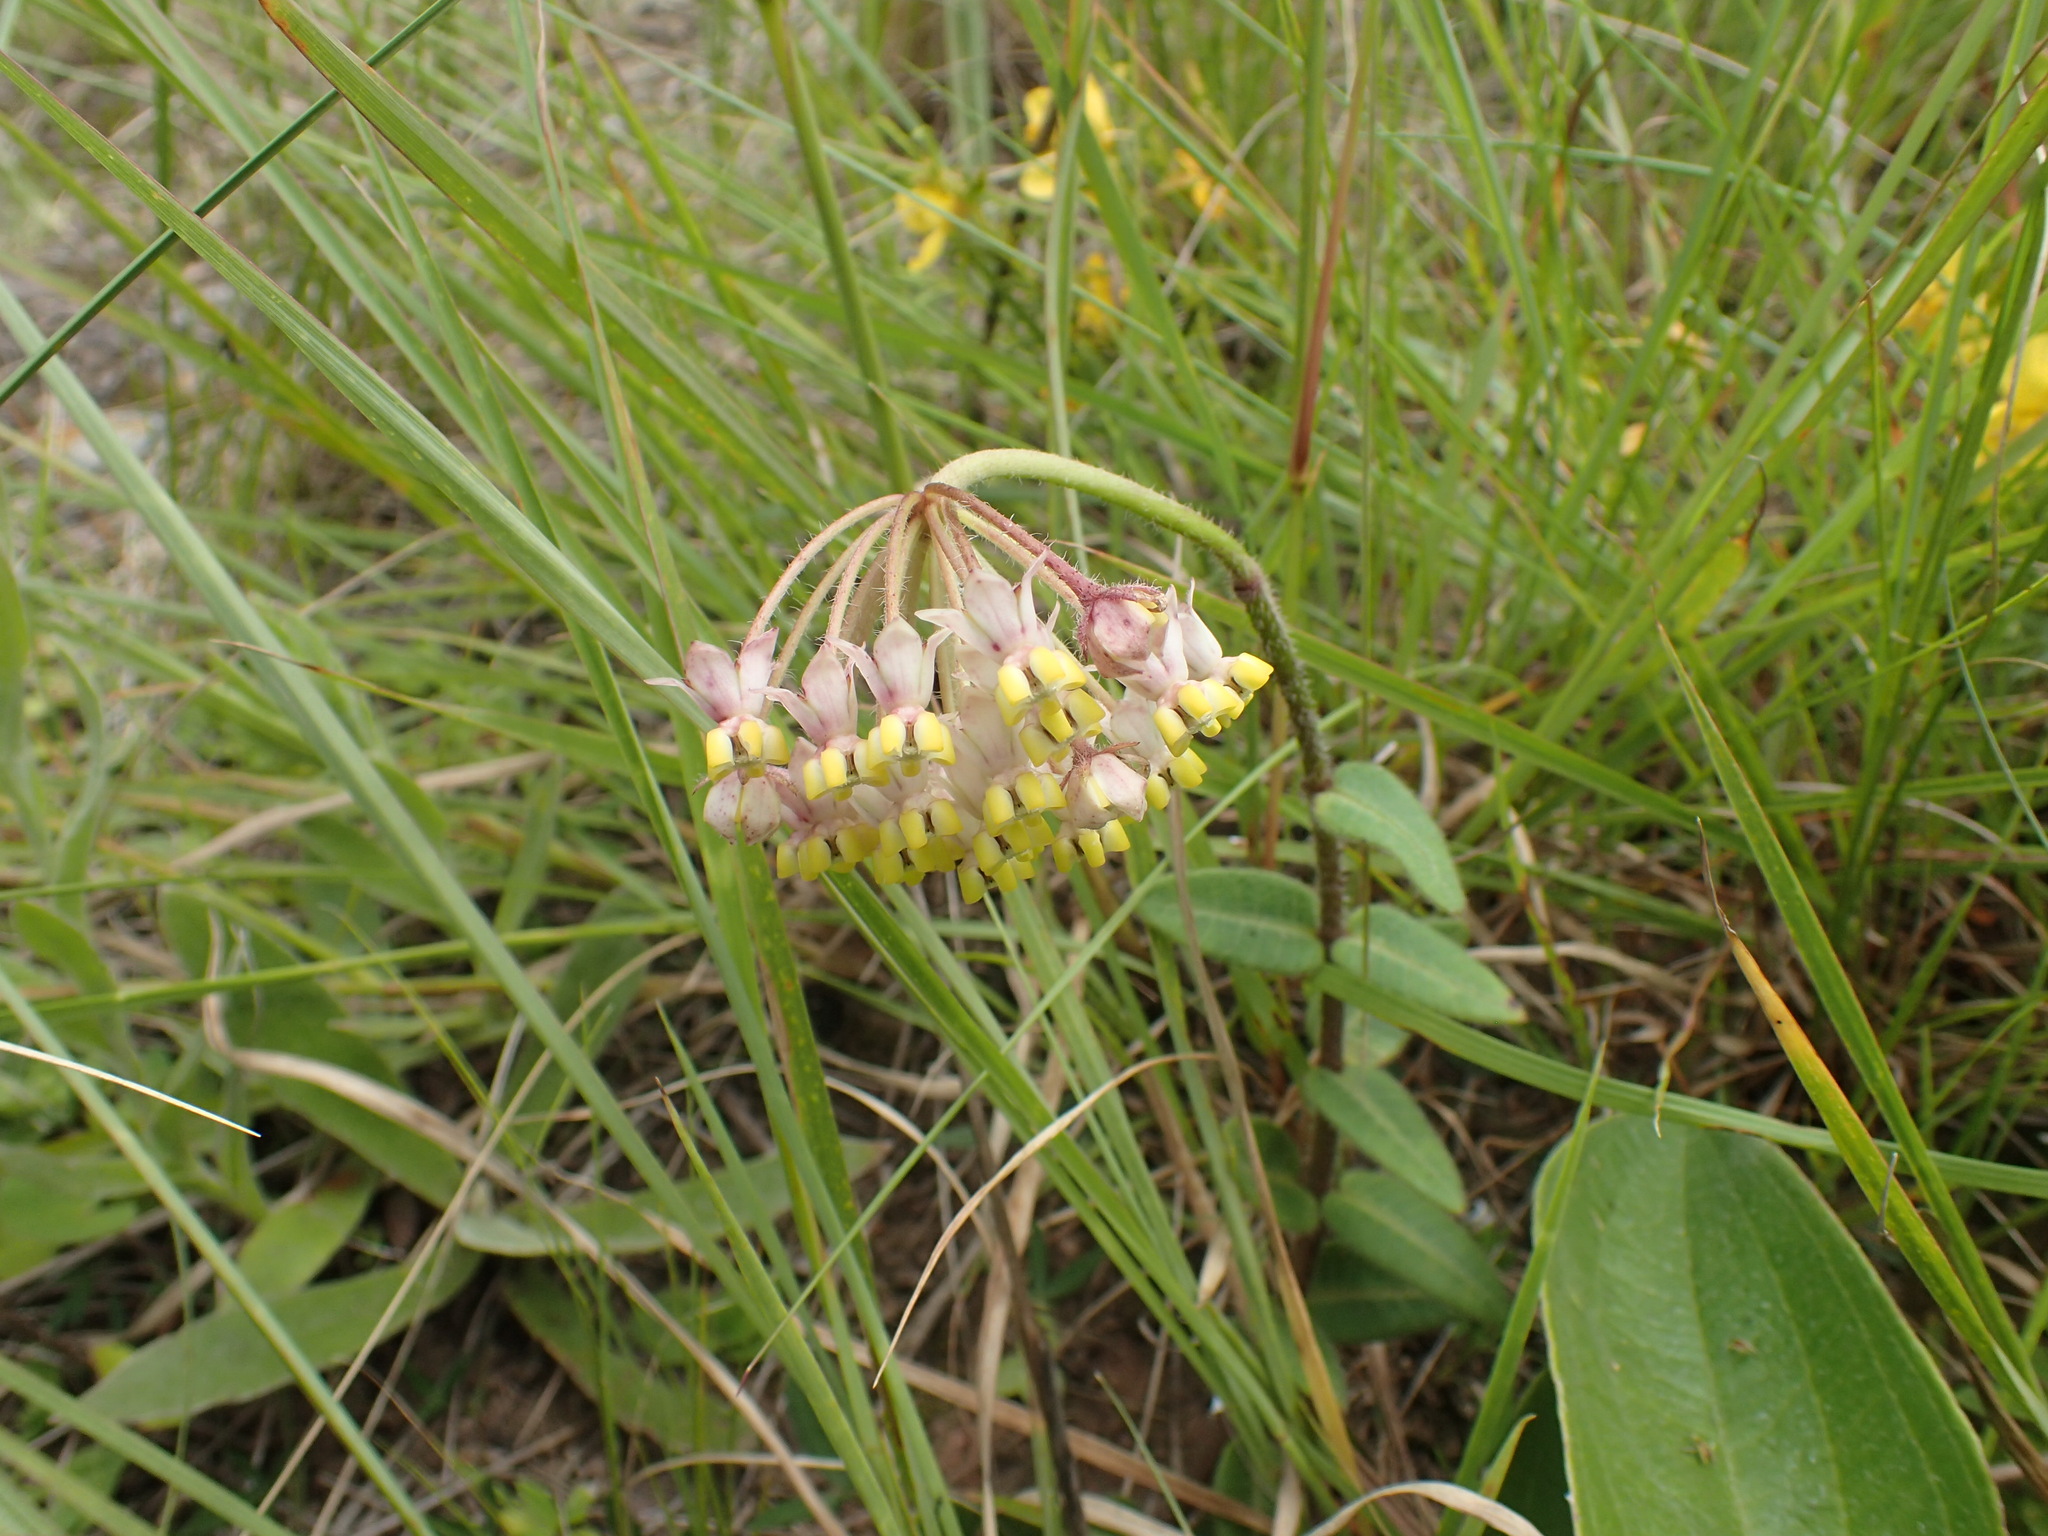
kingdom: Plantae
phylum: Tracheophyta
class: Magnoliopsida
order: Gentianales
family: Apocynaceae
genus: Asclepias
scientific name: Asclepias albens
